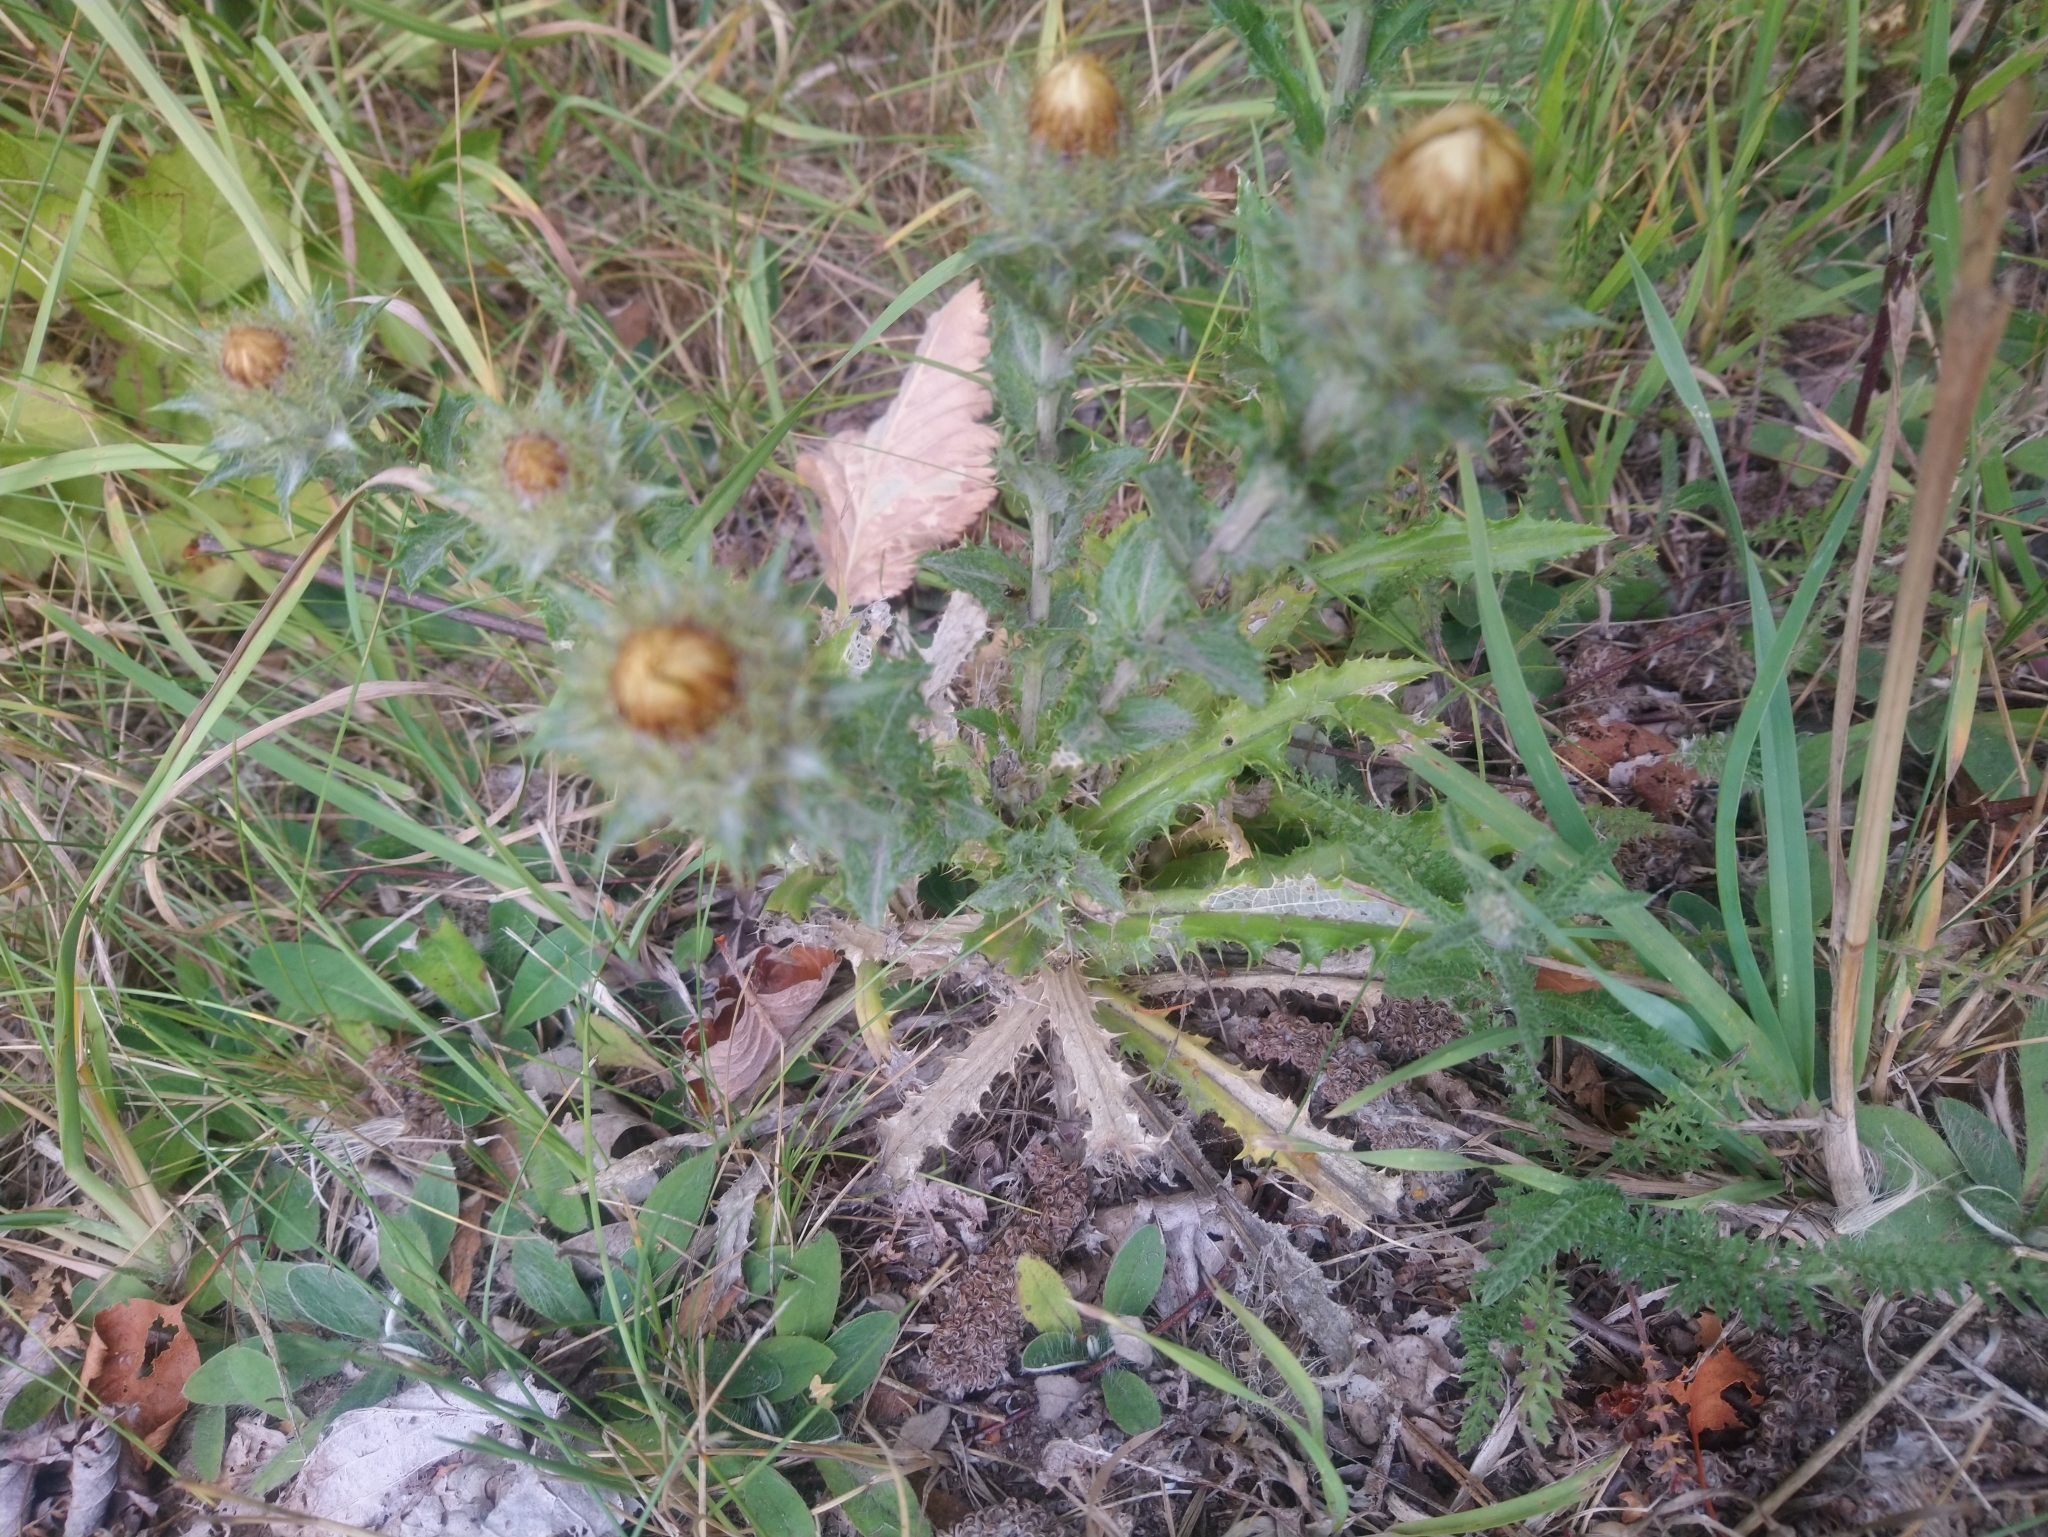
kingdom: Plantae
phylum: Tracheophyta
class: Magnoliopsida
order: Asterales
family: Asteraceae
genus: Carlina
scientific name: Carlina vulgaris
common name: Carline thistle
